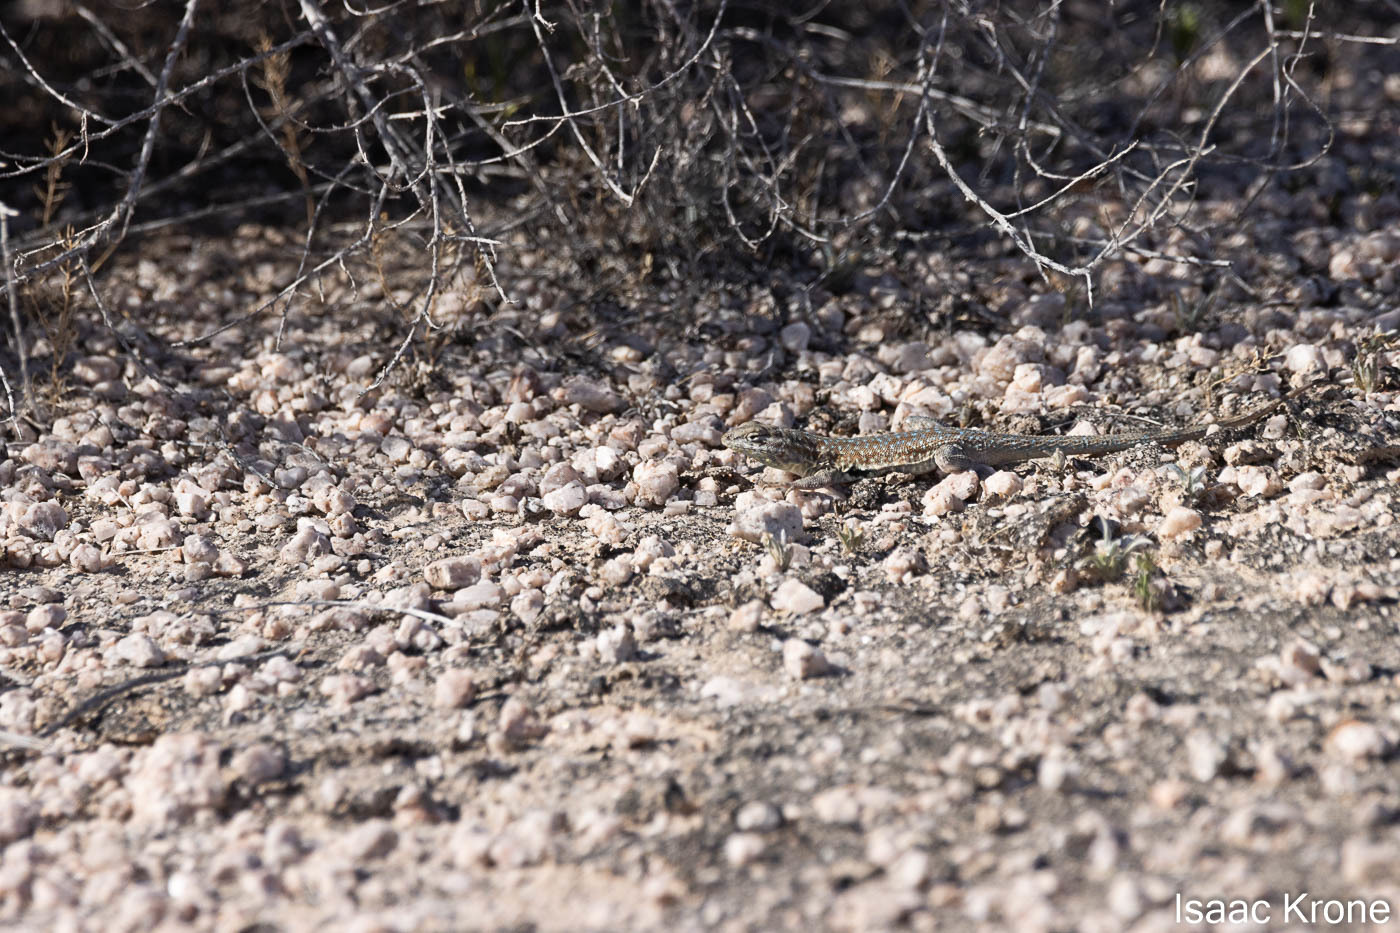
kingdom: Animalia
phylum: Chordata
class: Squamata
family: Phrynosomatidae
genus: Uta
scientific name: Uta stansburiana
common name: Side-blotched lizard
